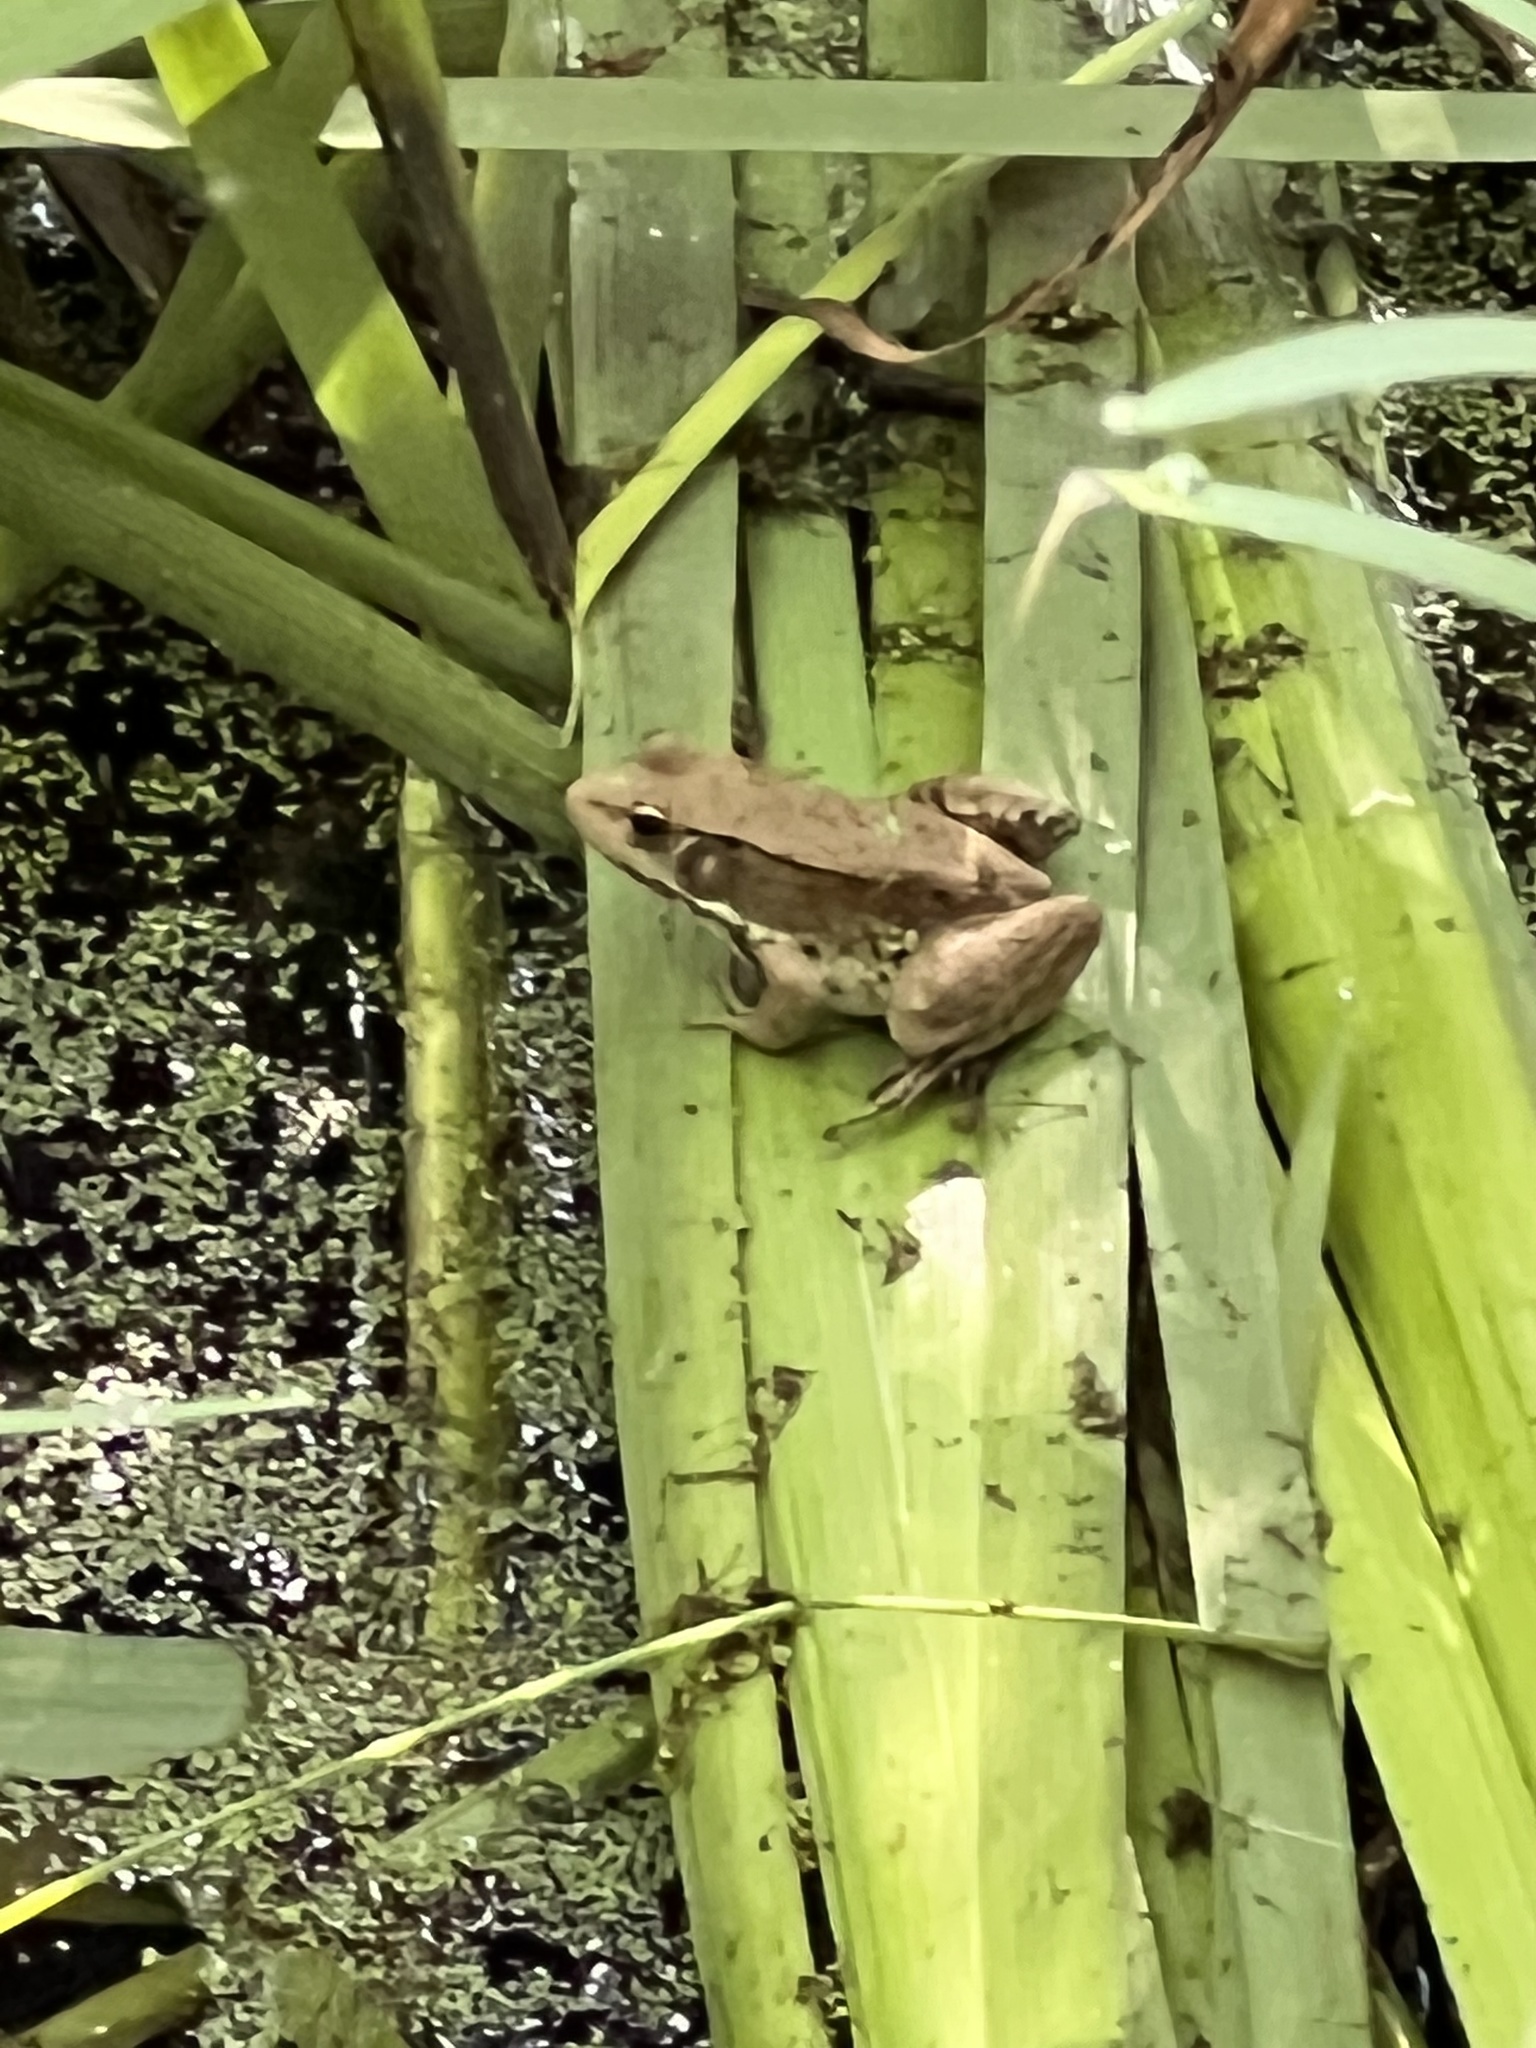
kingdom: Animalia
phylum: Chordata
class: Amphibia
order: Anura
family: Ranidae
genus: Lithobates
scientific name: Lithobates clamitans
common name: Green frog
